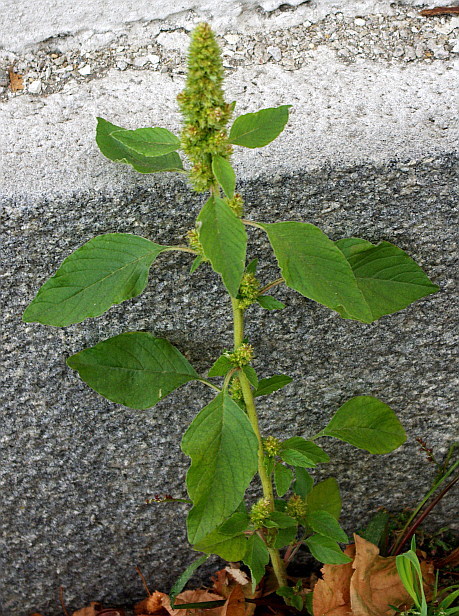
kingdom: Plantae
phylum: Tracheophyta
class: Magnoliopsida
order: Caryophyllales
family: Amaranthaceae
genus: Amaranthus
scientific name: Amaranthus retroflexus
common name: Redroot amaranth
